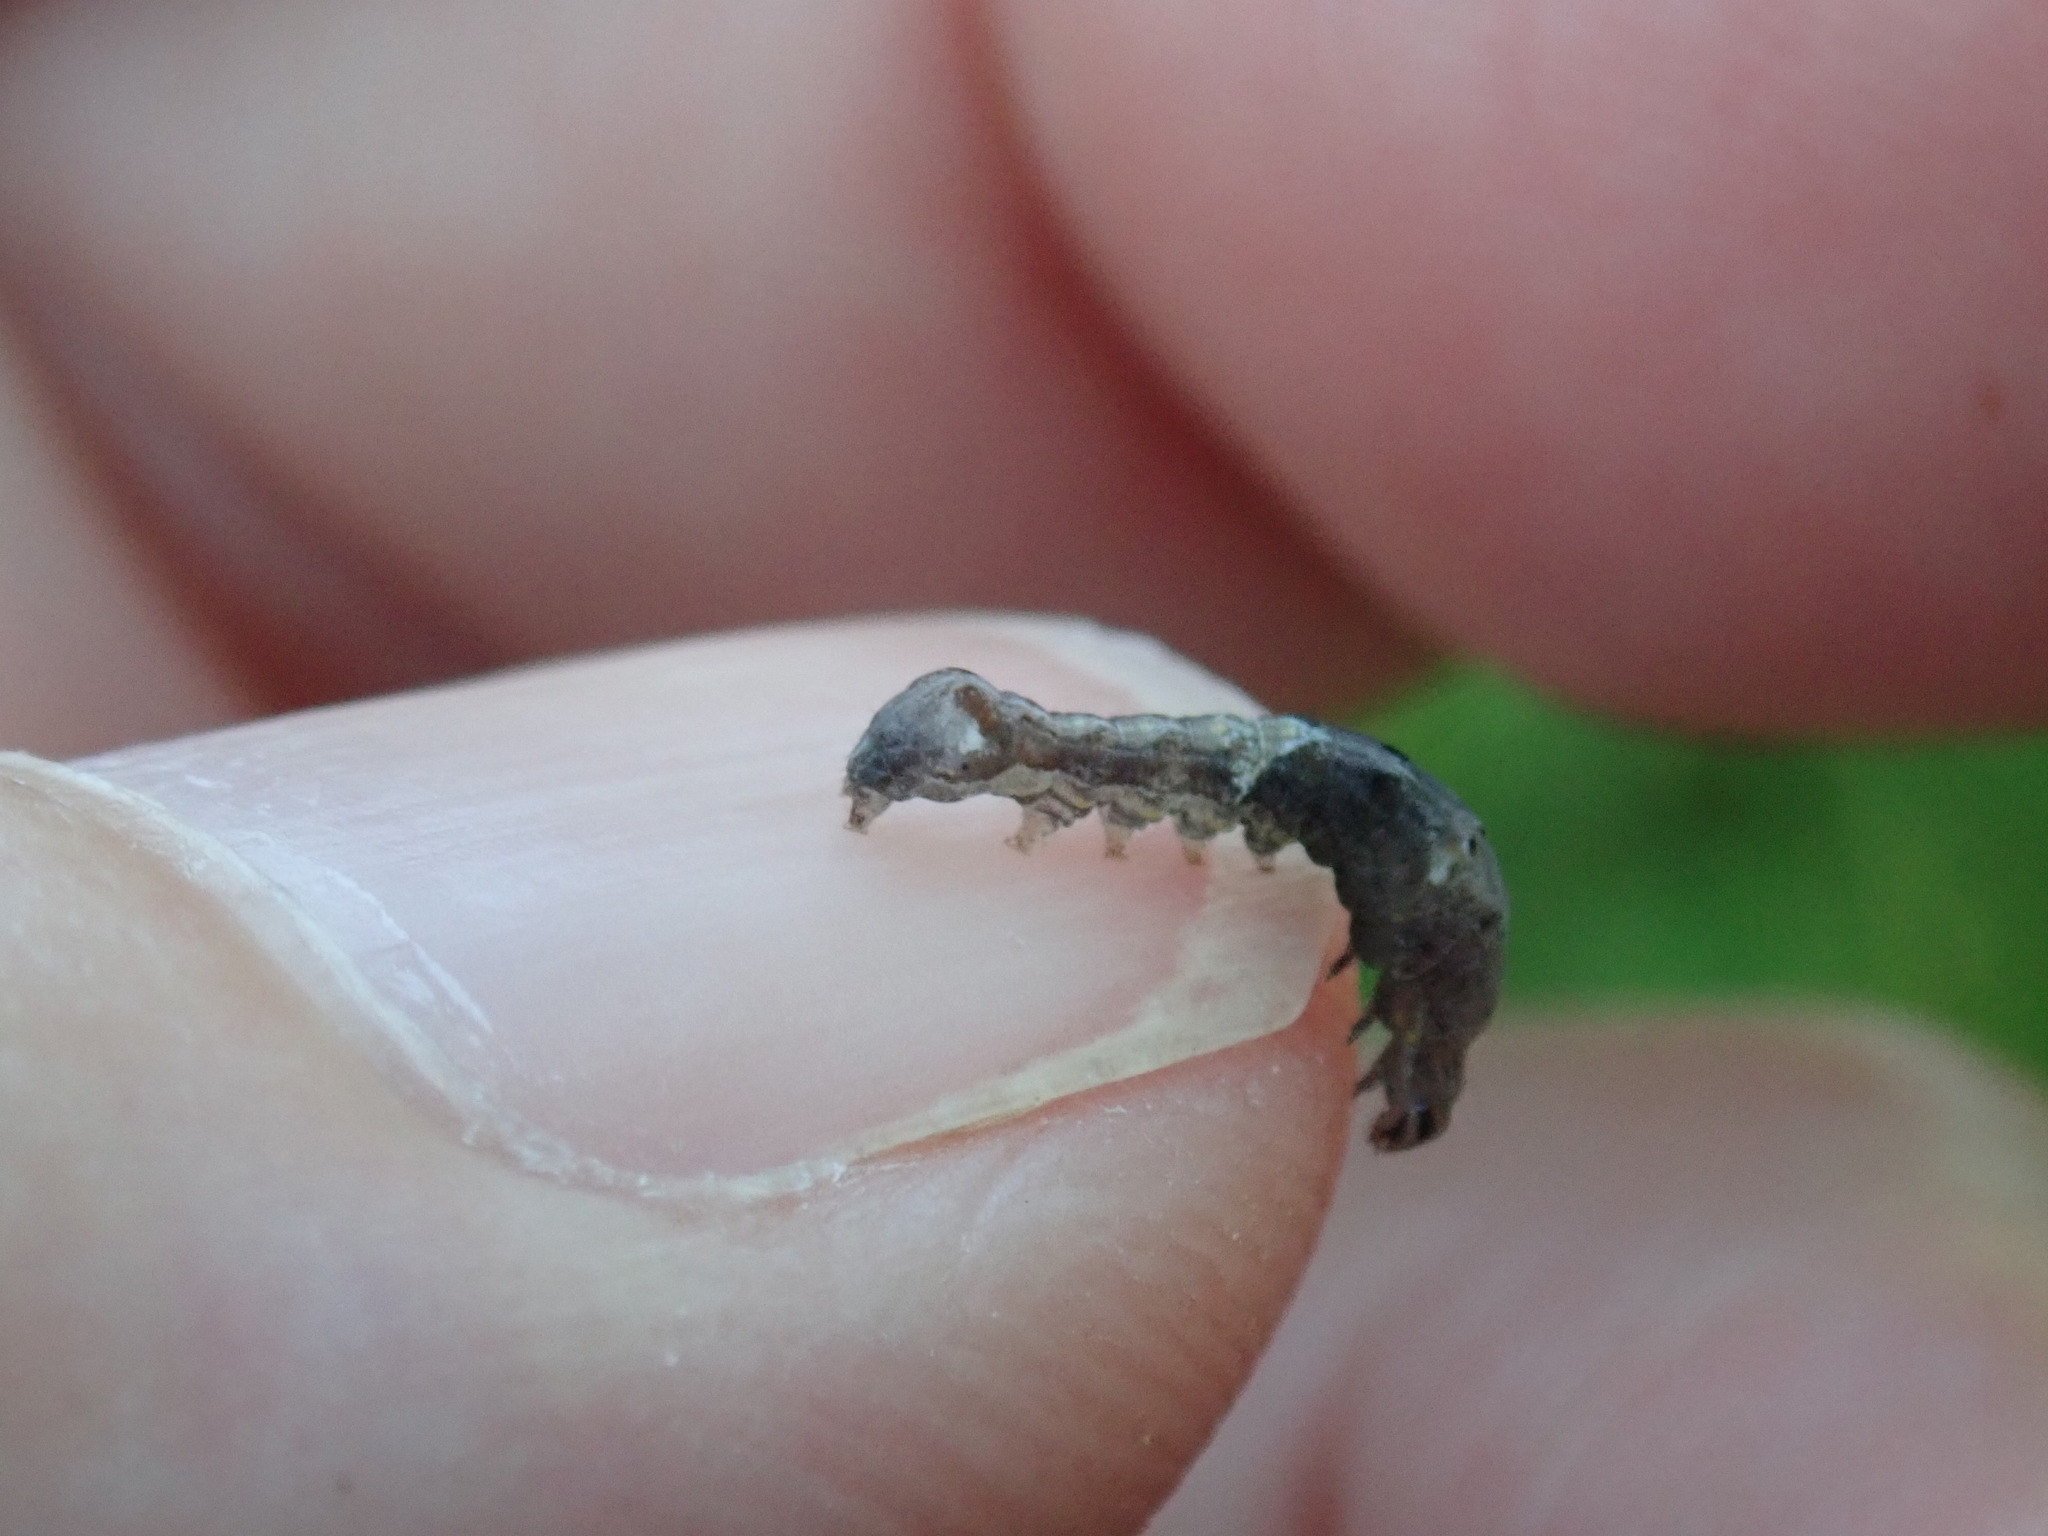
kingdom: Animalia
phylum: Arthropoda
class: Insecta
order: Lepidoptera
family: Noctuidae
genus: Elaphria
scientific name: Elaphria versicolor
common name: Fir harlequin
